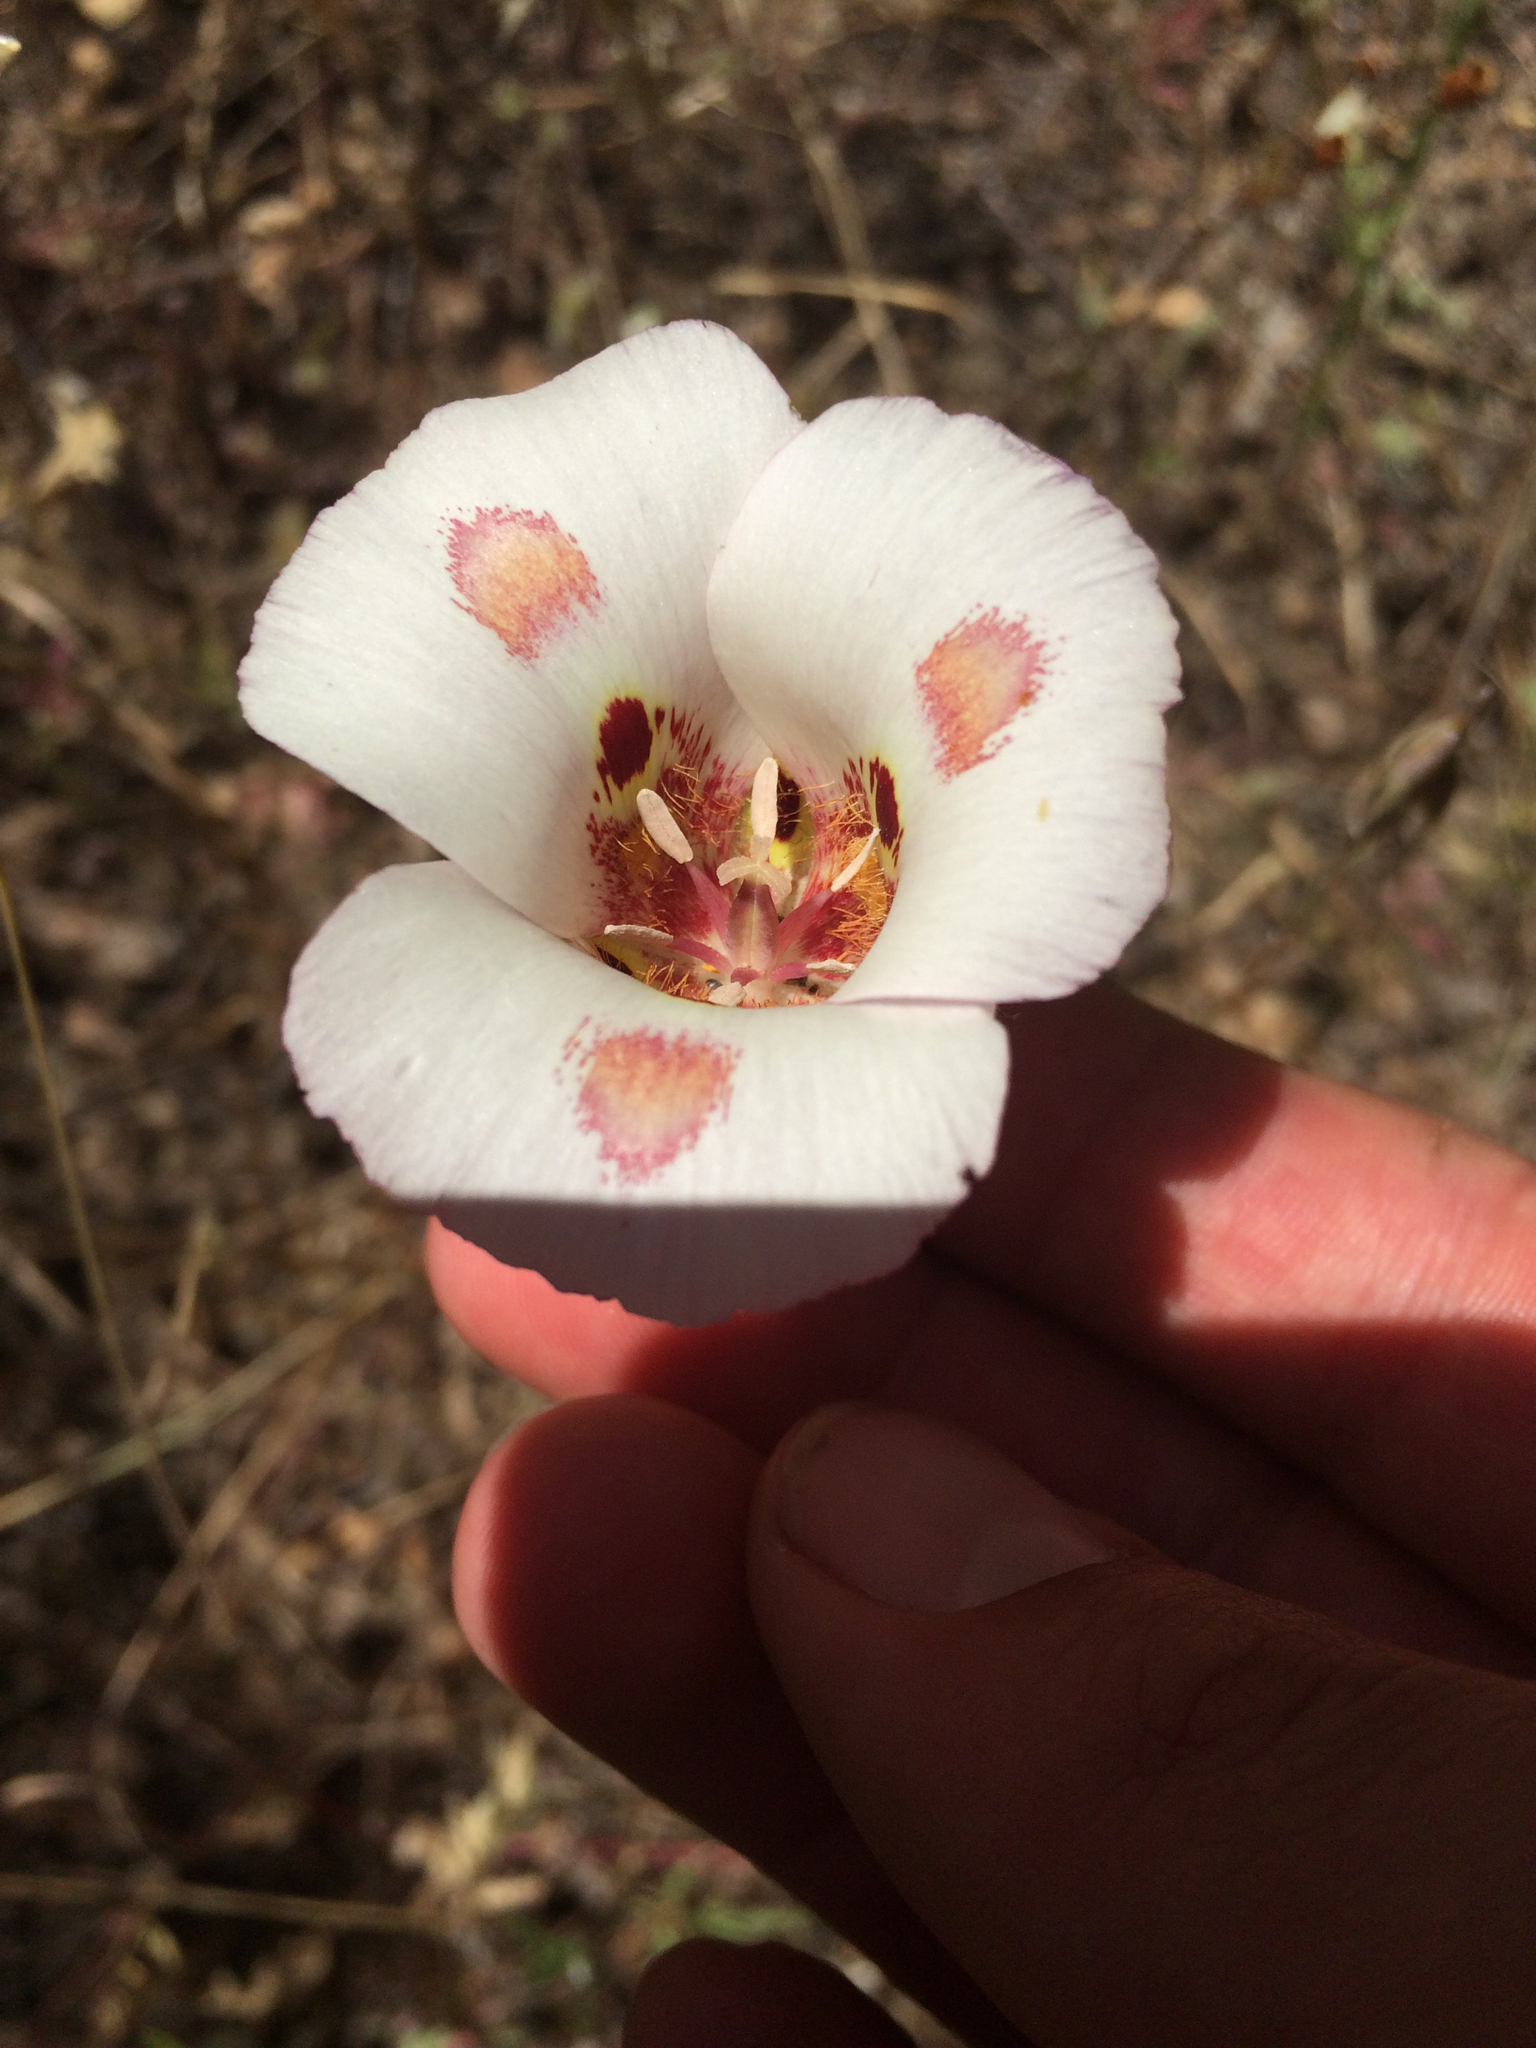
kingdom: Plantae
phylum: Tracheophyta
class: Liliopsida
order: Liliales
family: Liliaceae
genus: Calochortus
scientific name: Calochortus venustus
